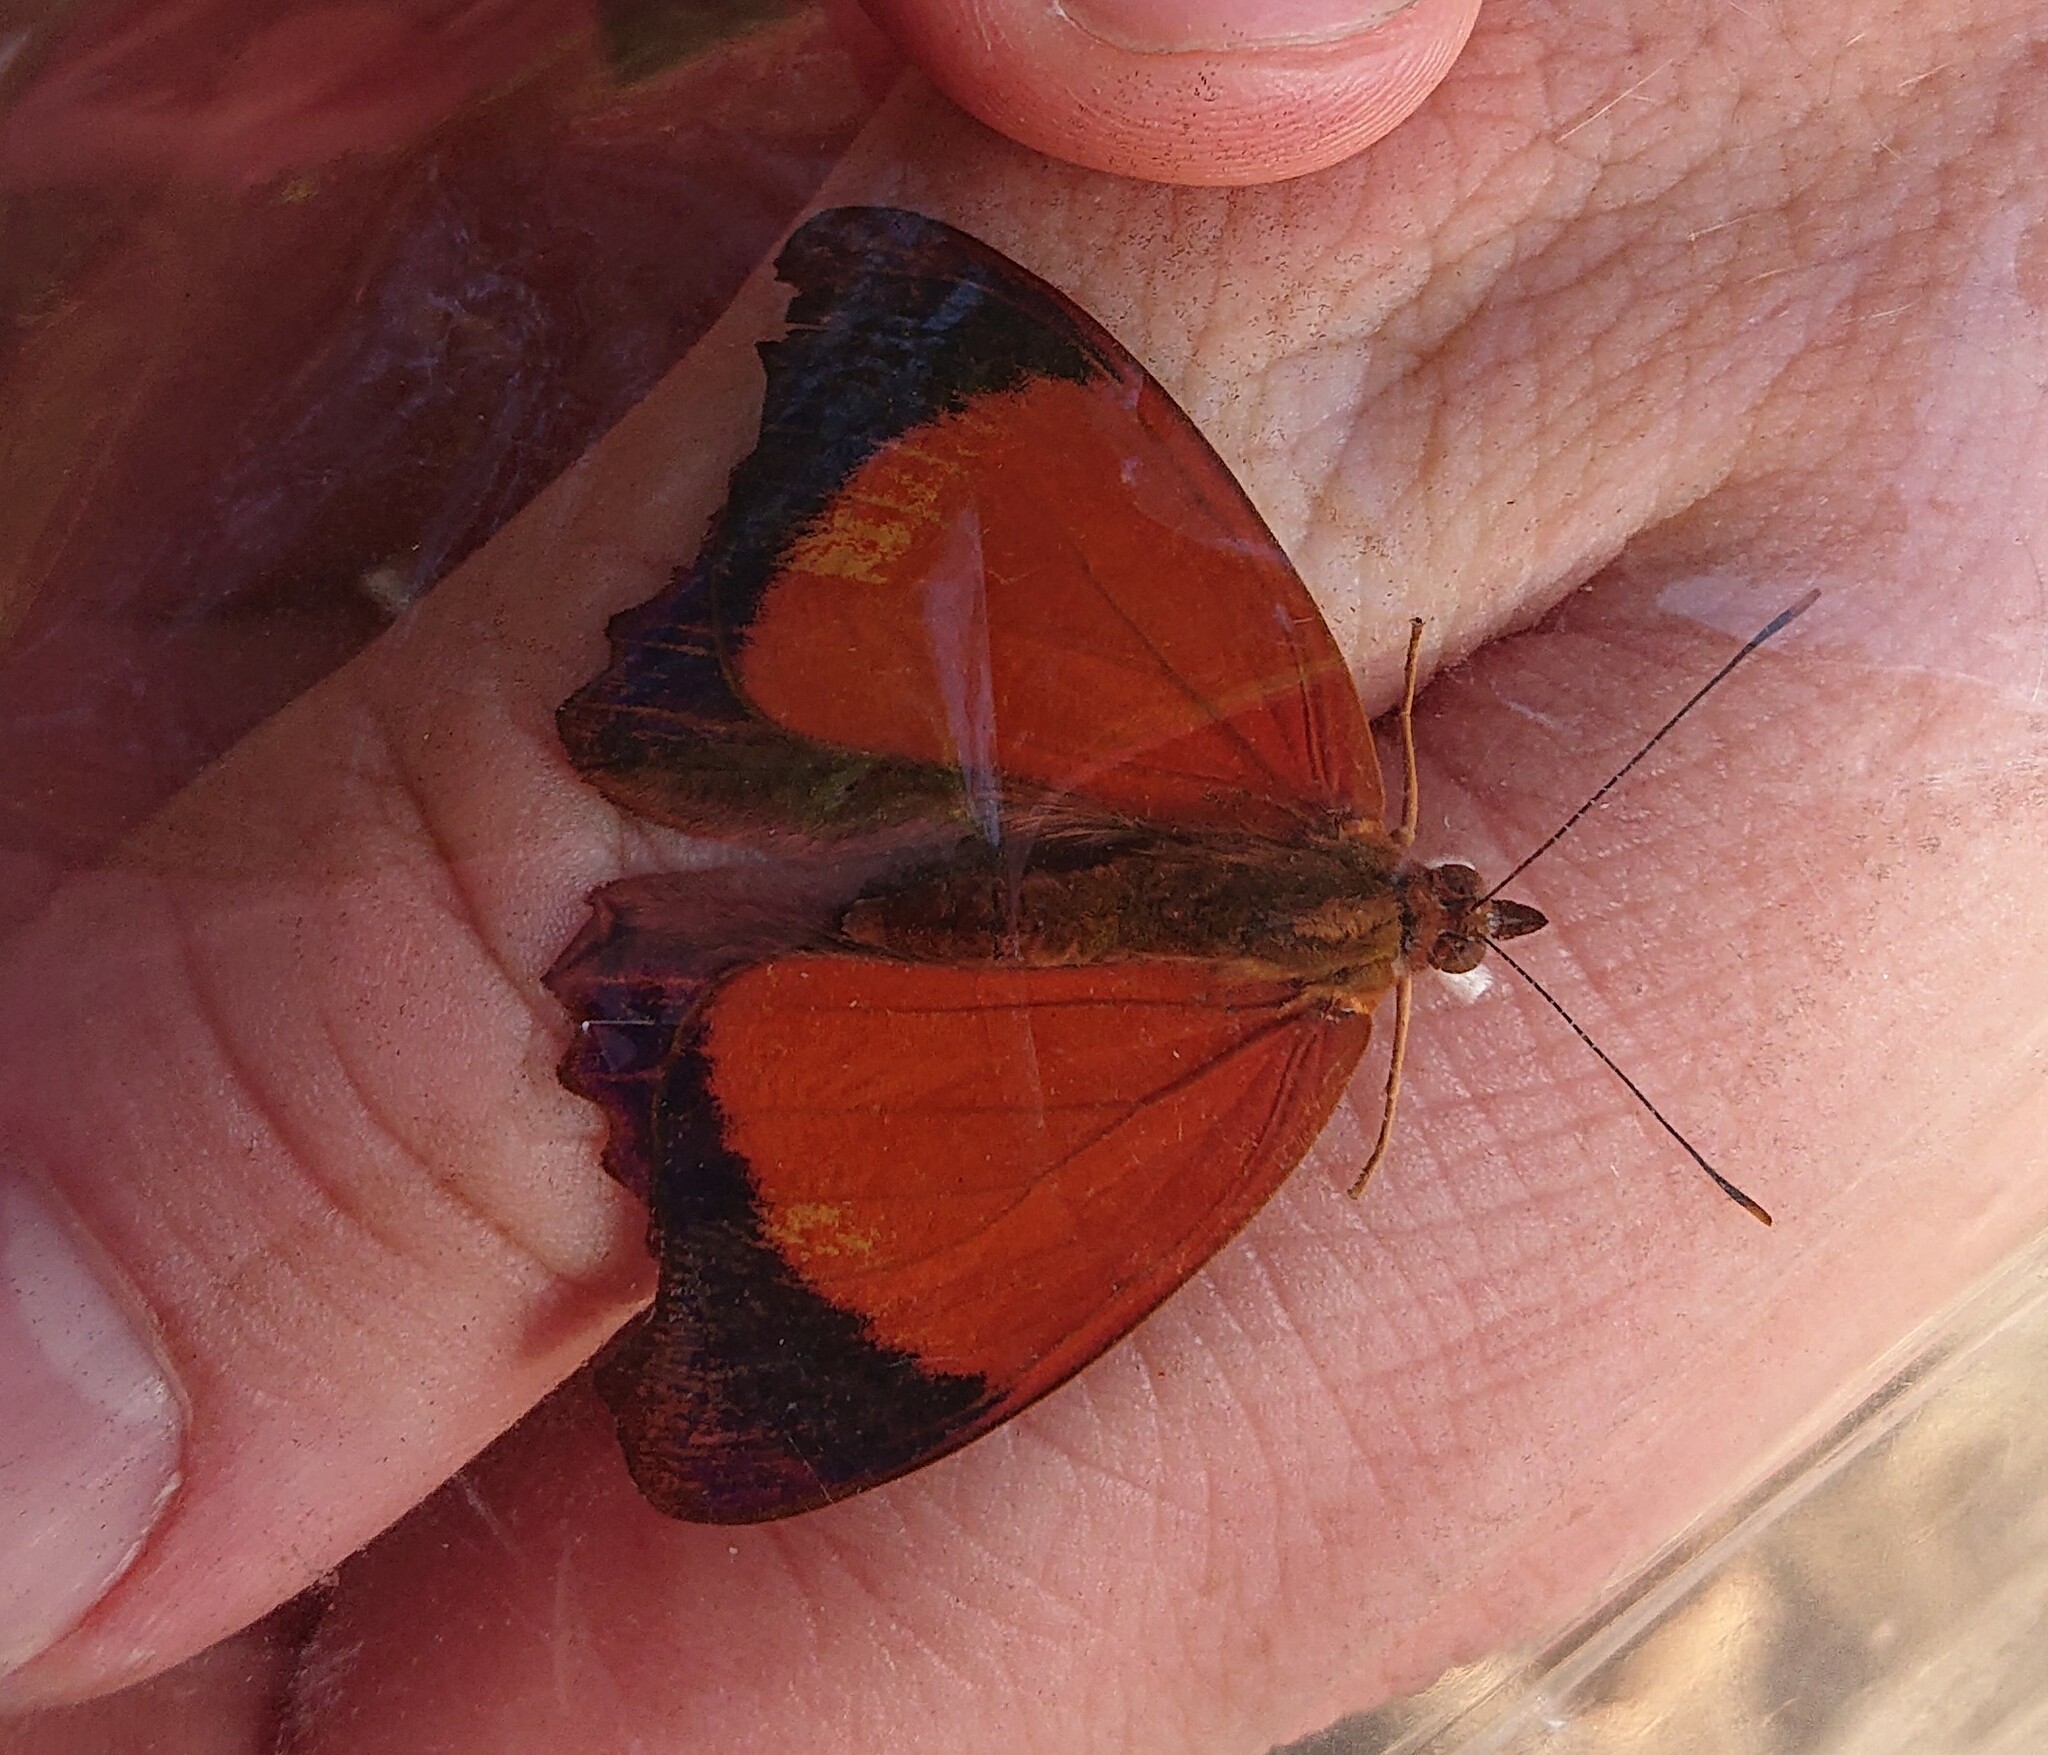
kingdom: Animalia
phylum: Arthropoda
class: Insecta
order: Lepidoptera
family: Nymphalidae
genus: Temenis
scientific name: Temenis laothoe
